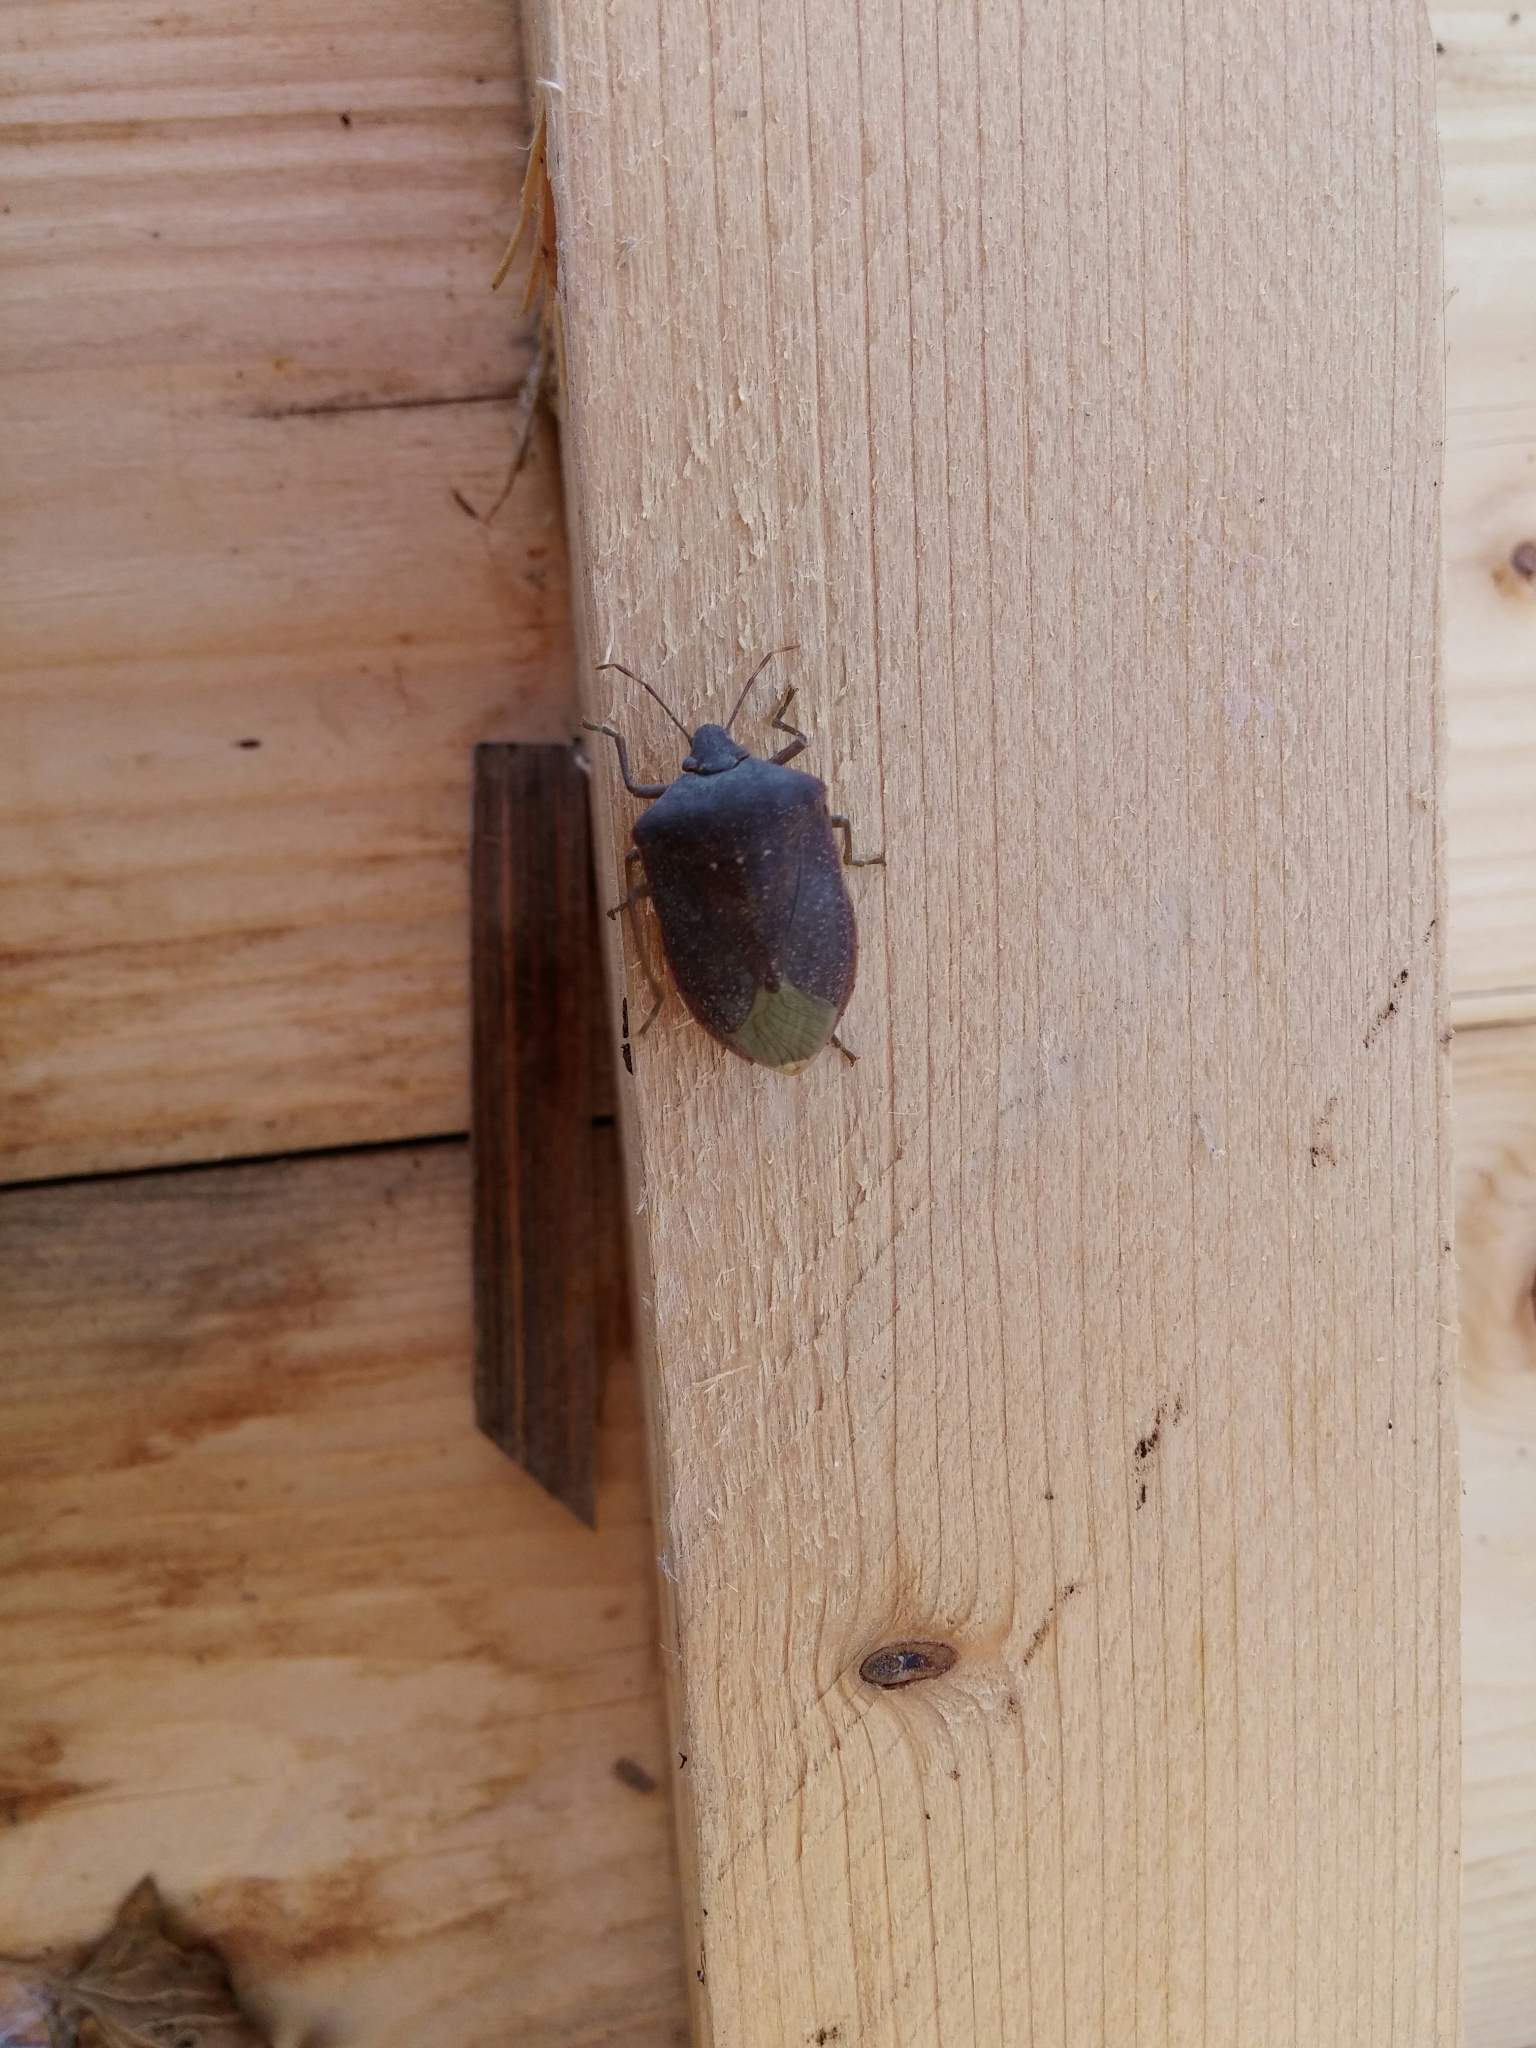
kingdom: Animalia
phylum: Arthropoda
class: Insecta
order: Hemiptera
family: Pentatomidae
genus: Nezara
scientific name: Nezara viridula
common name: Southern green stink bug
